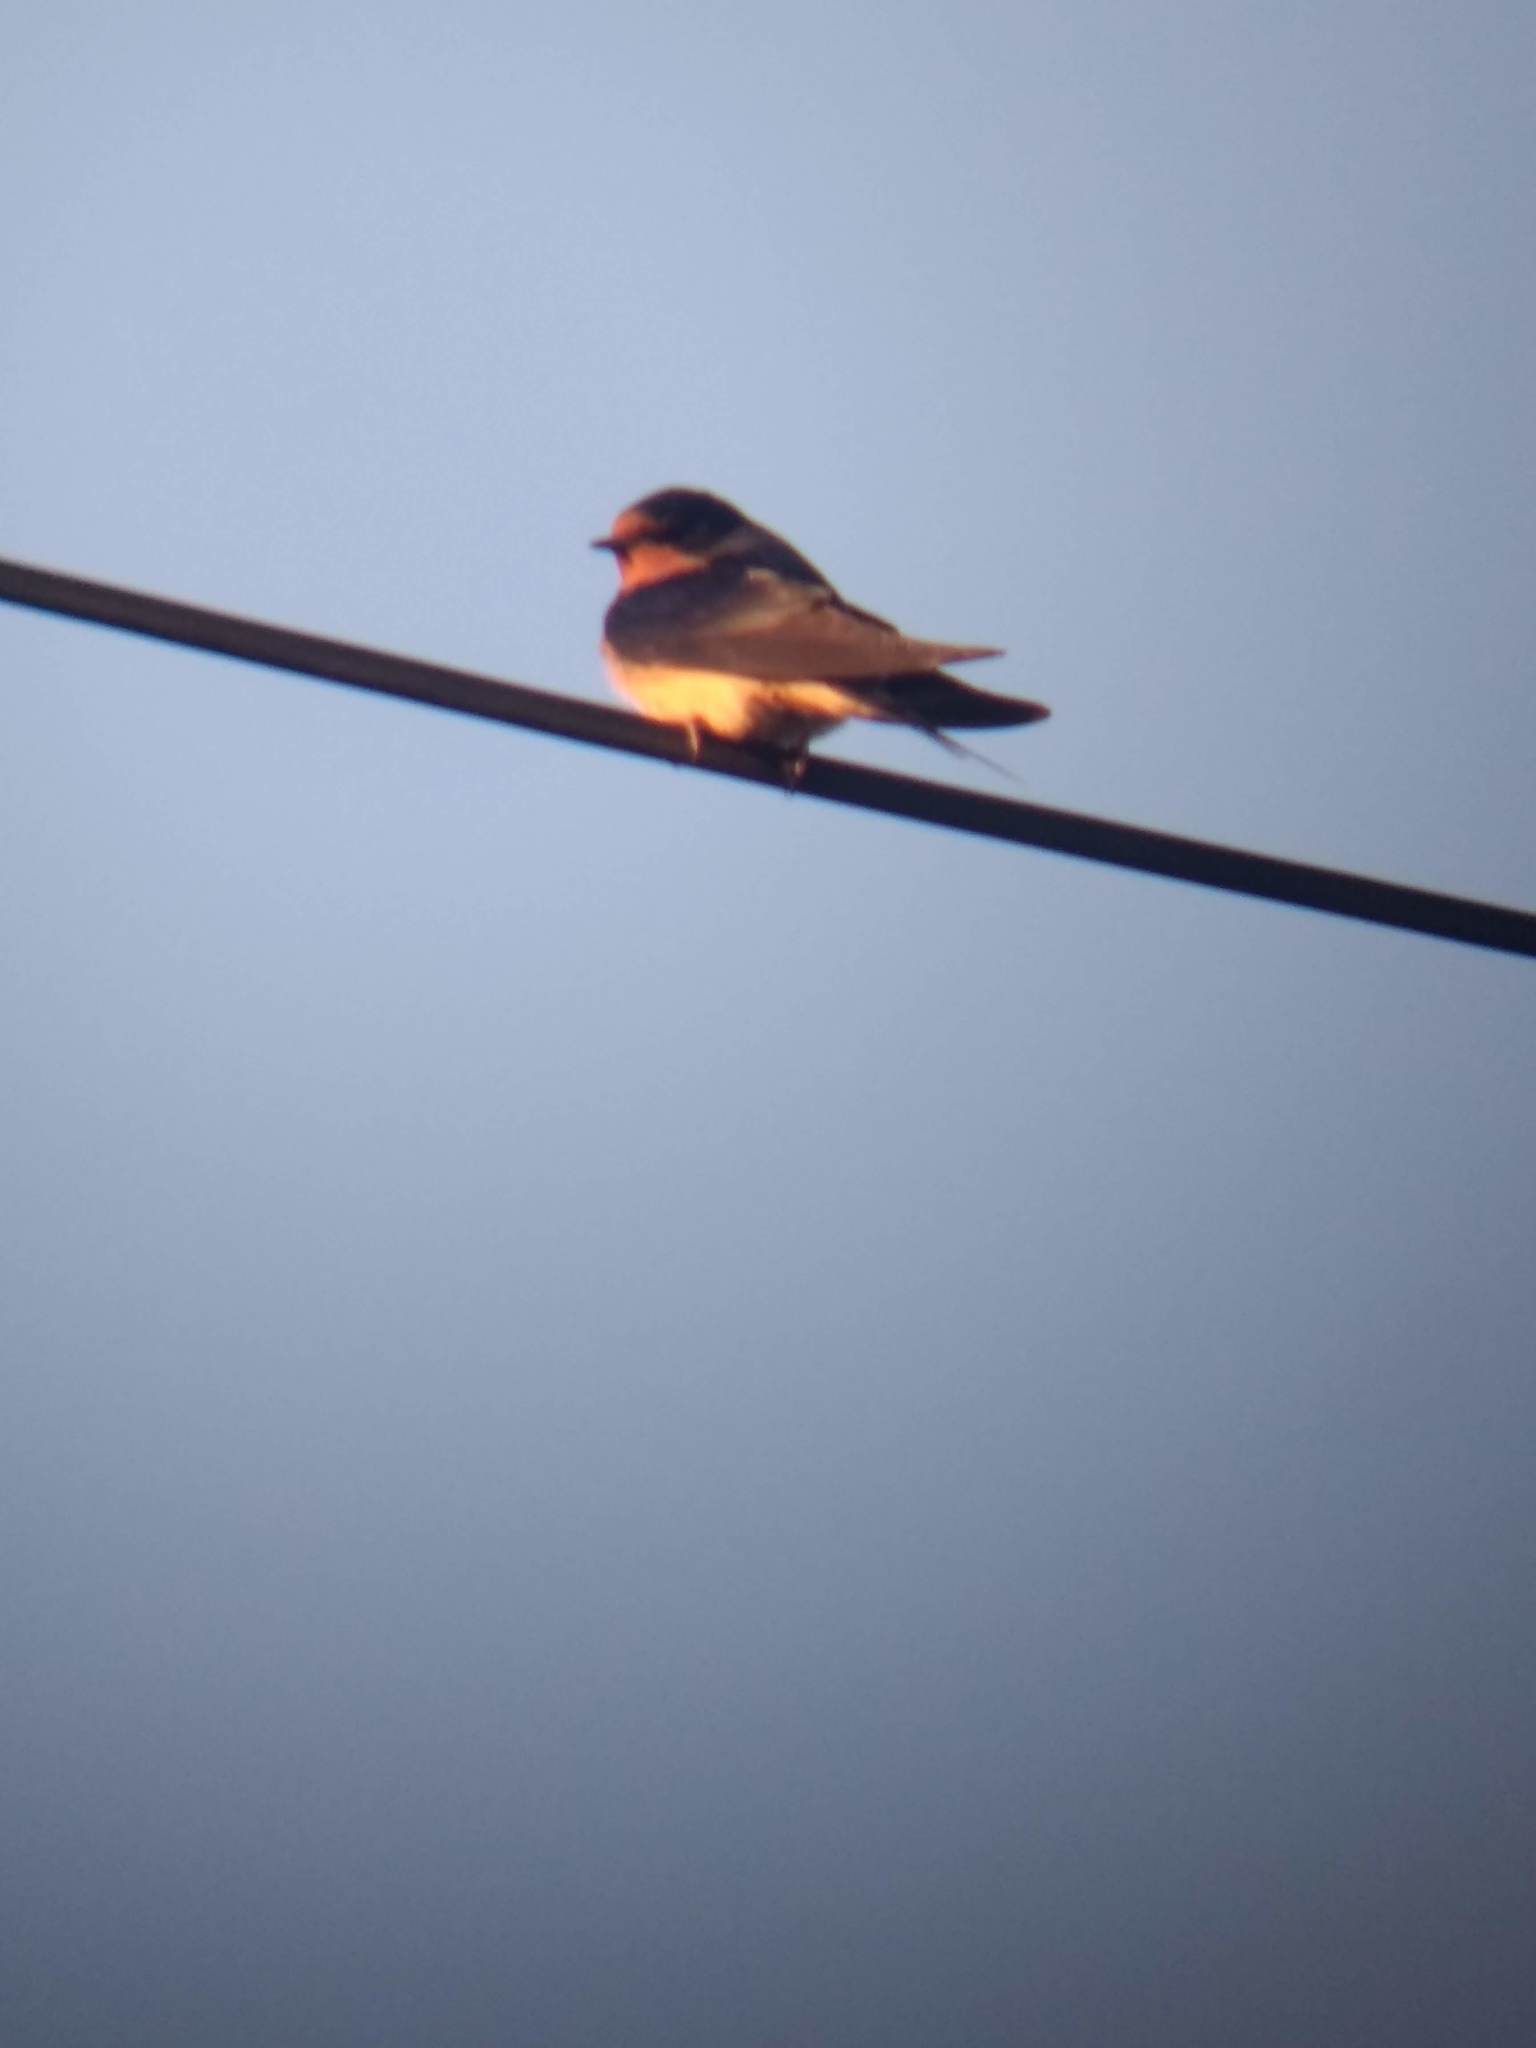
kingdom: Animalia
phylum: Chordata
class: Aves
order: Passeriformes
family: Hirundinidae
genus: Hirundo
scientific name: Hirundo rustica
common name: Barn swallow
